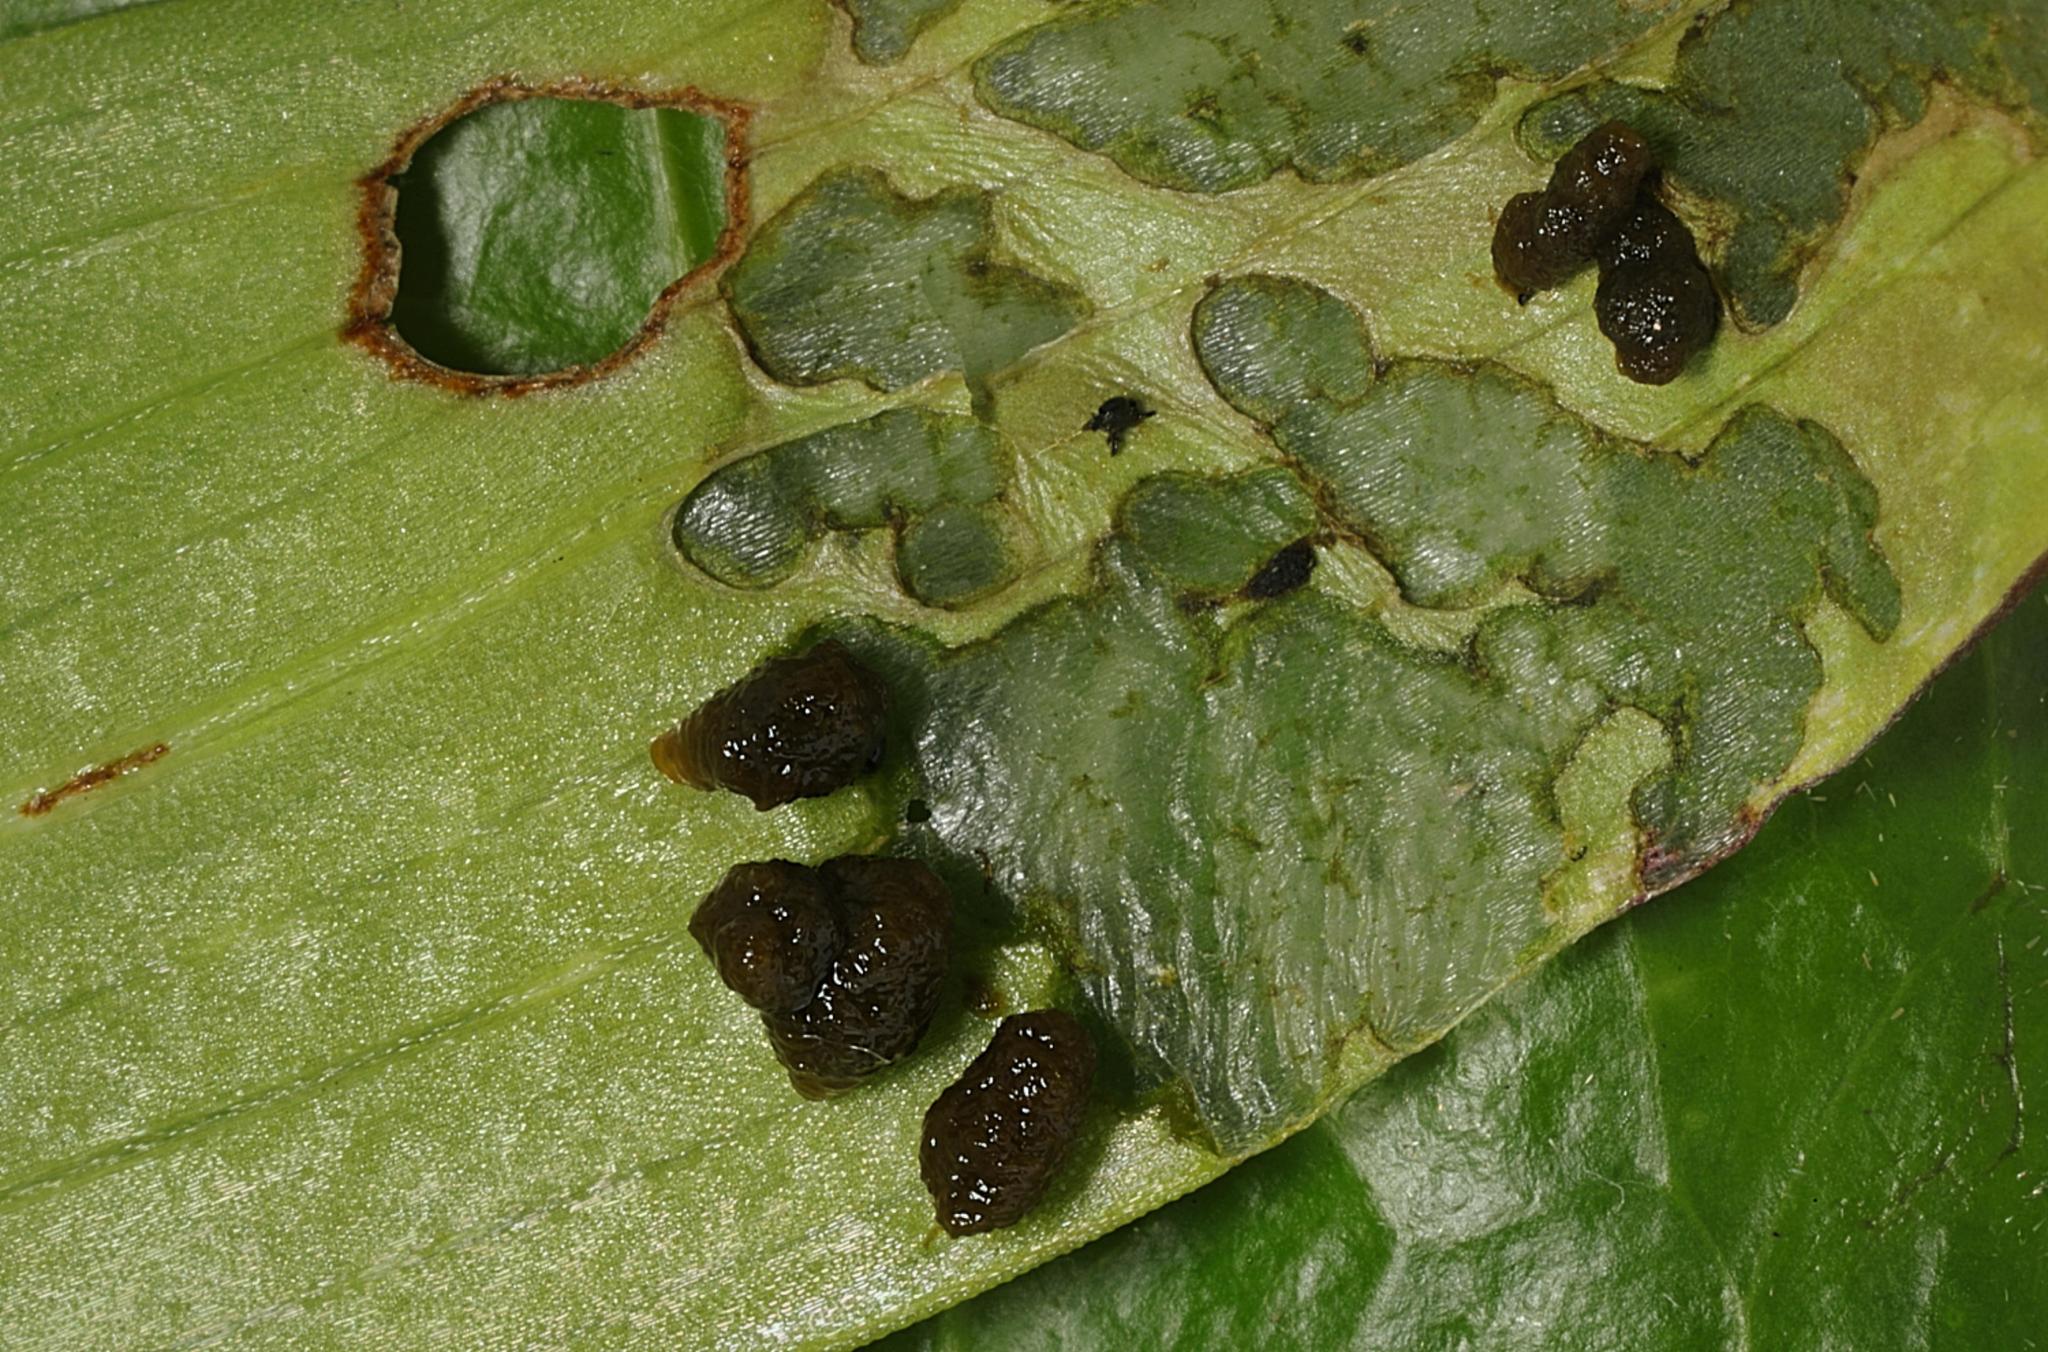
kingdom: Animalia
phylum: Arthropoda
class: Insecta
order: Coleoptera
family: Chrysomelidae
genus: Lilioceris
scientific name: Lilioceris lilii
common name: Lily beetle
